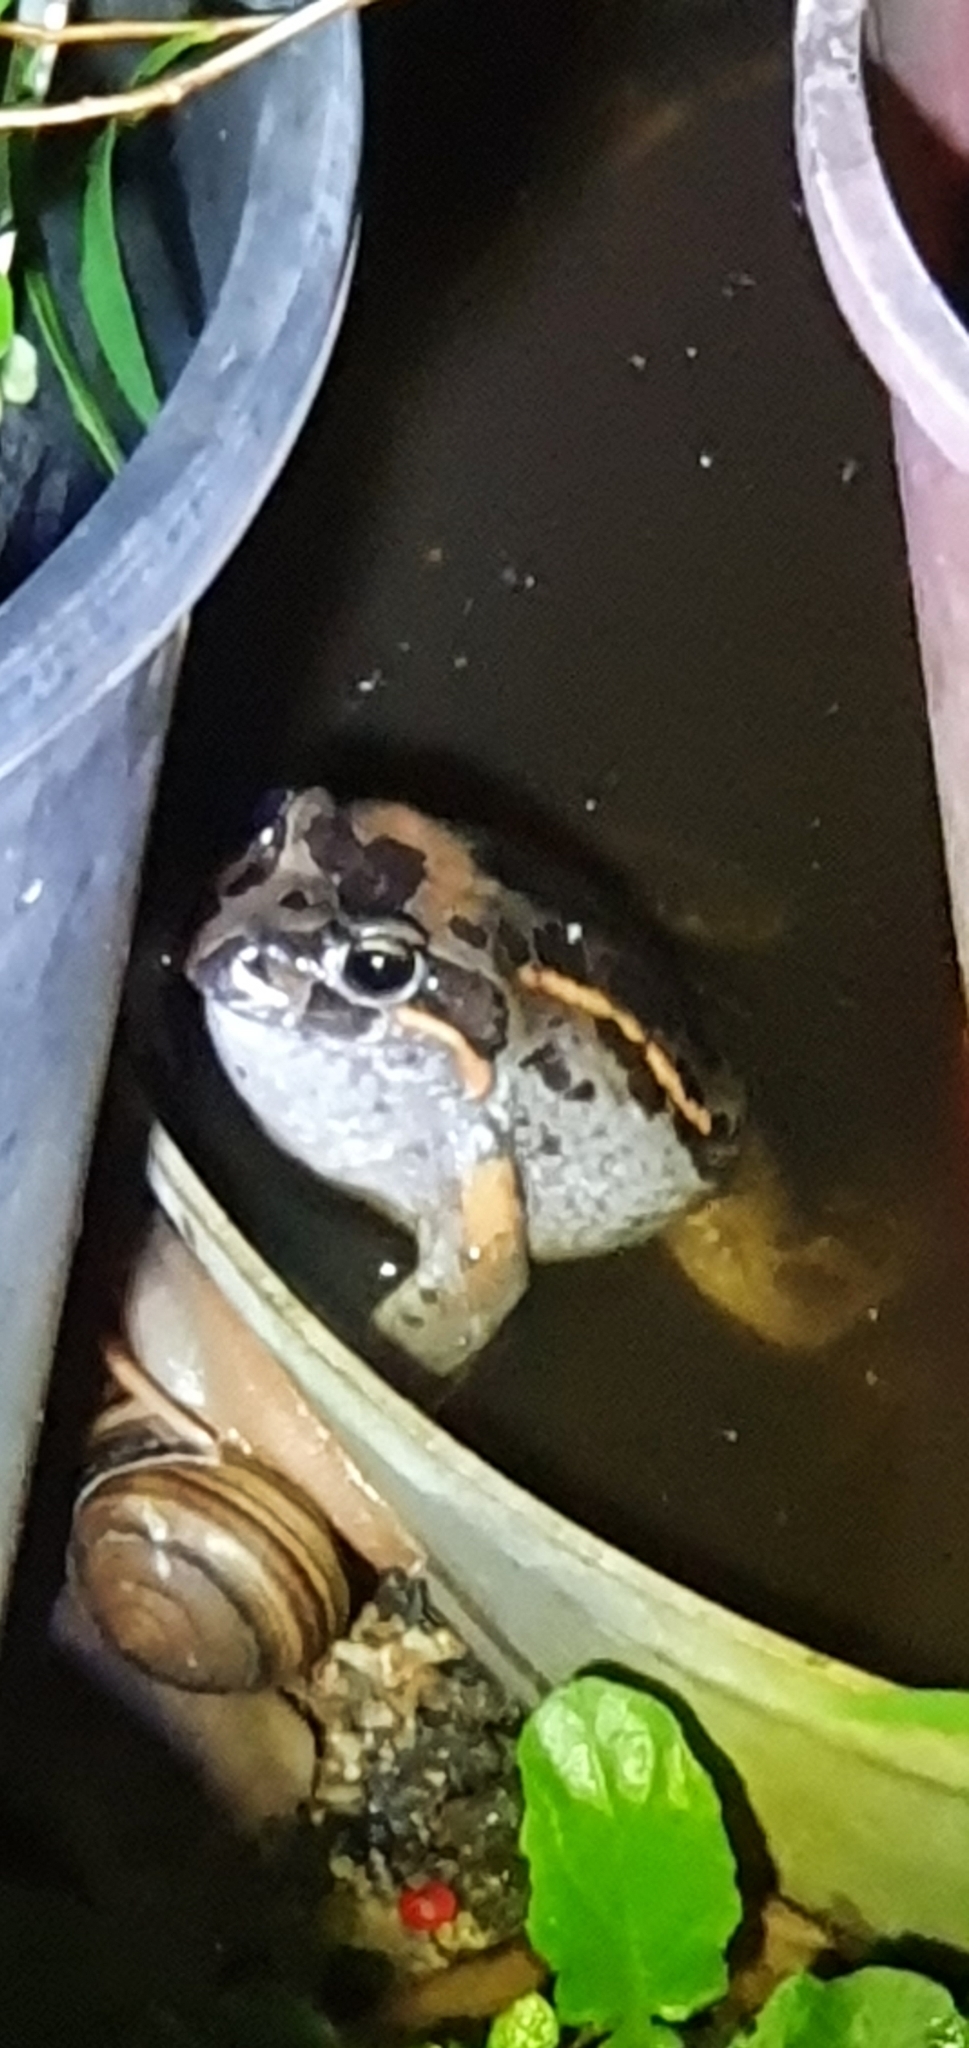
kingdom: Animalia
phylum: Chordata
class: Amphibia
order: Anura
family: Limnodynastidae
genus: Limnodynastes
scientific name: Limnodynastes salmini
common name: Salmon-striped frog
